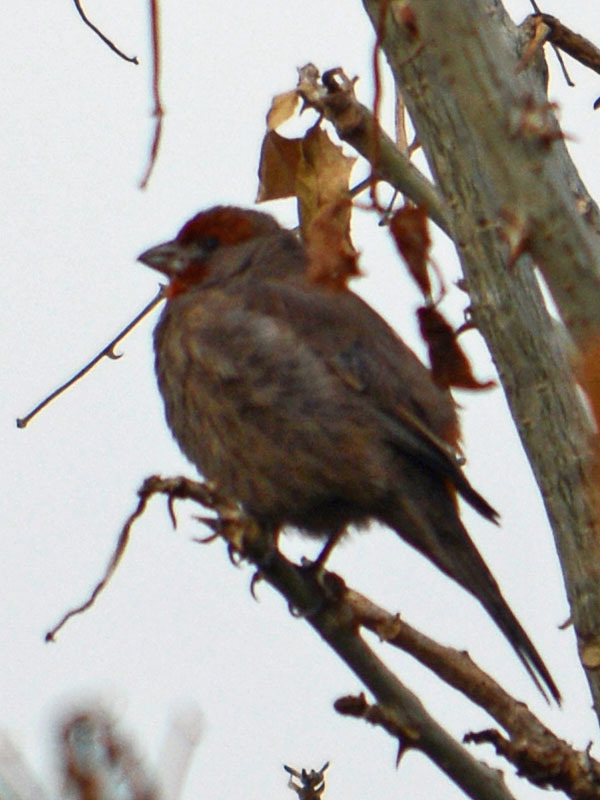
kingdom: Animalia
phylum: Chordata
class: Aves
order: Passeriformes
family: Fringillidae
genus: Haemorhous
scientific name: Haemorhous mexicanus
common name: House finch
